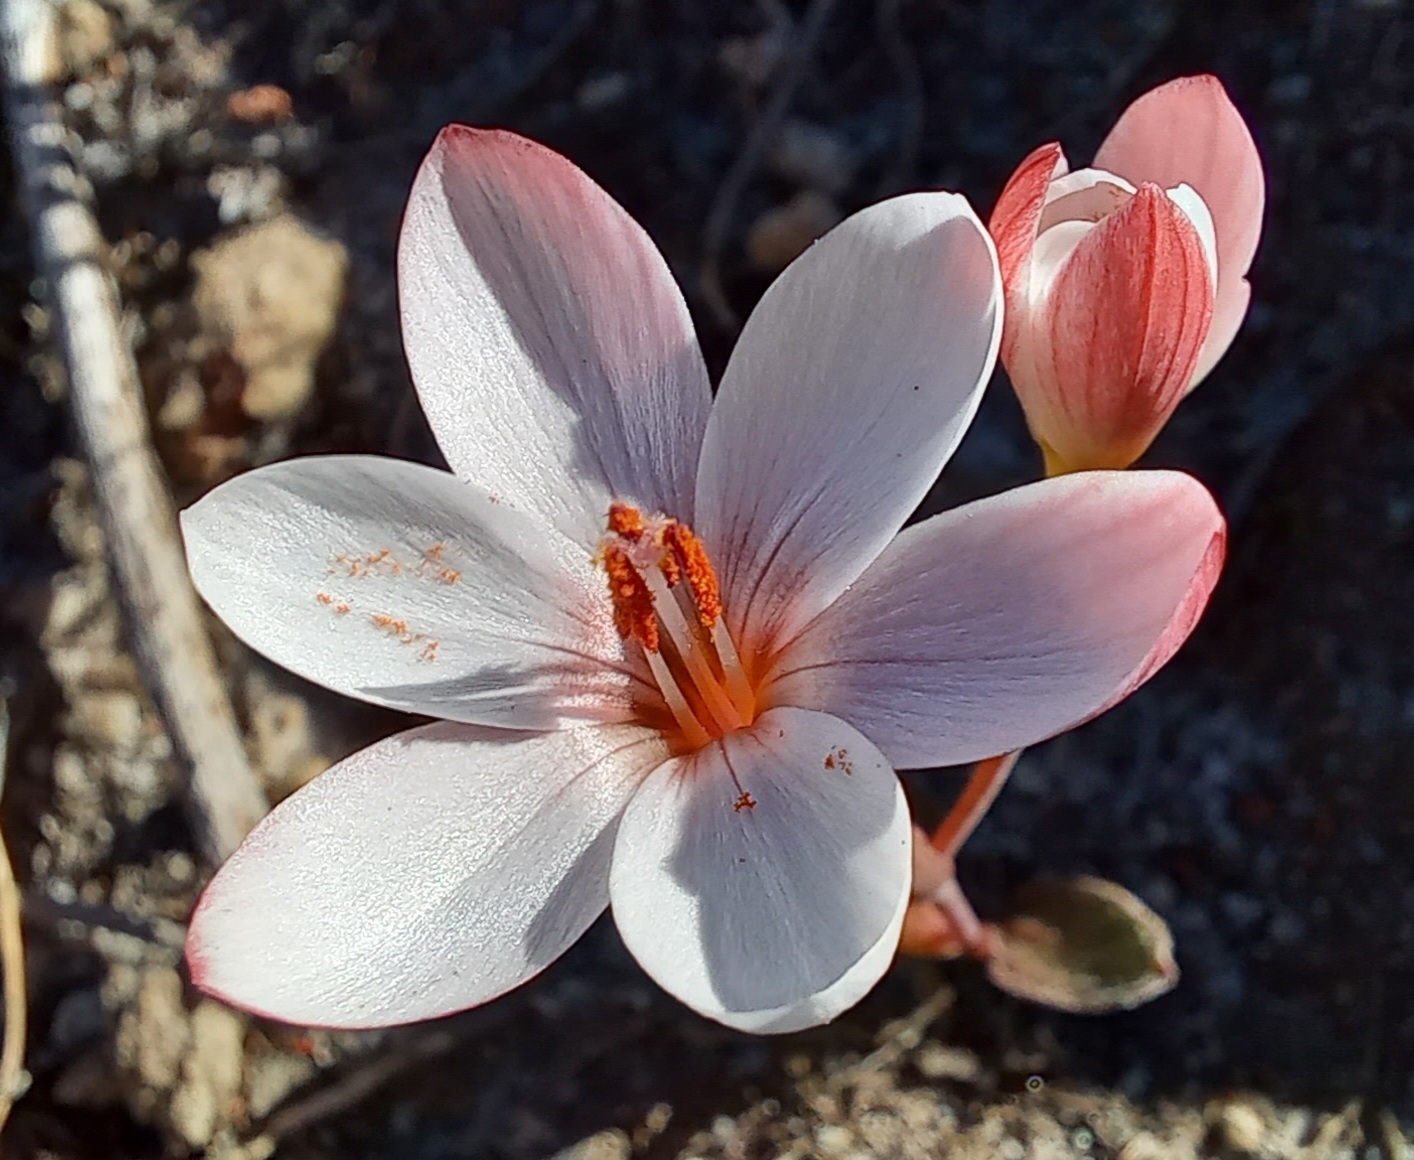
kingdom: Plantae
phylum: Tracheophyta
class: Liliopsida
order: Asparagales
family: Iridaceae
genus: Geissorhiza
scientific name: Geissorhiza ovata
